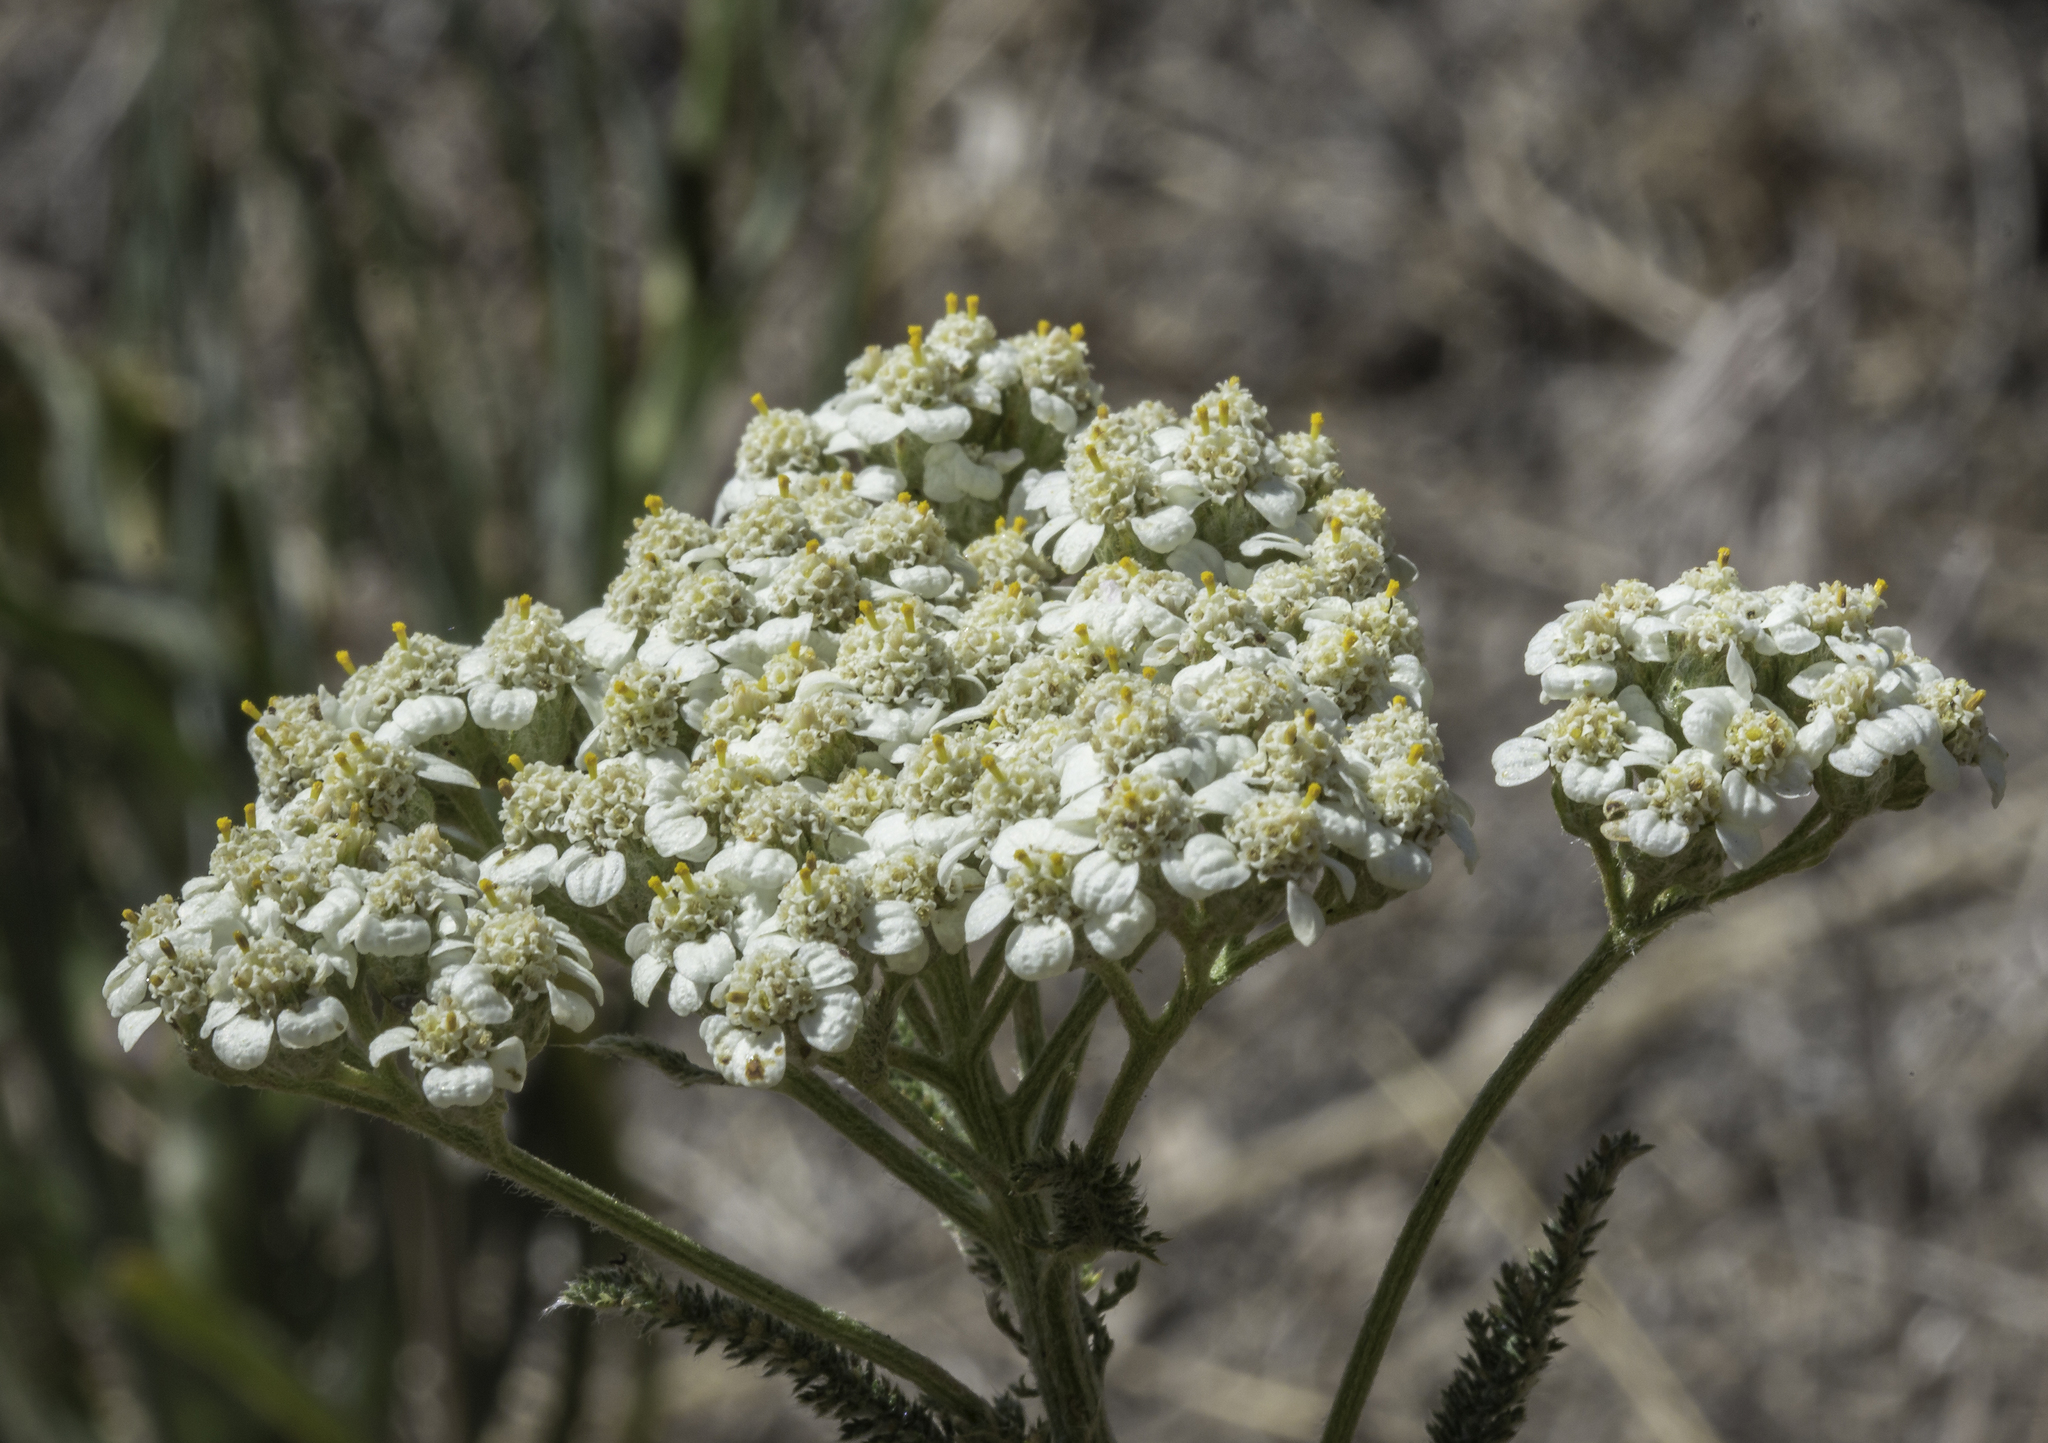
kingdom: Plantae
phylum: Tracheophyta
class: Magnoliopsida
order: Asterales
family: Asteraceae
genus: Achillea
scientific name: Achillea millefolium
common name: Yarrow
